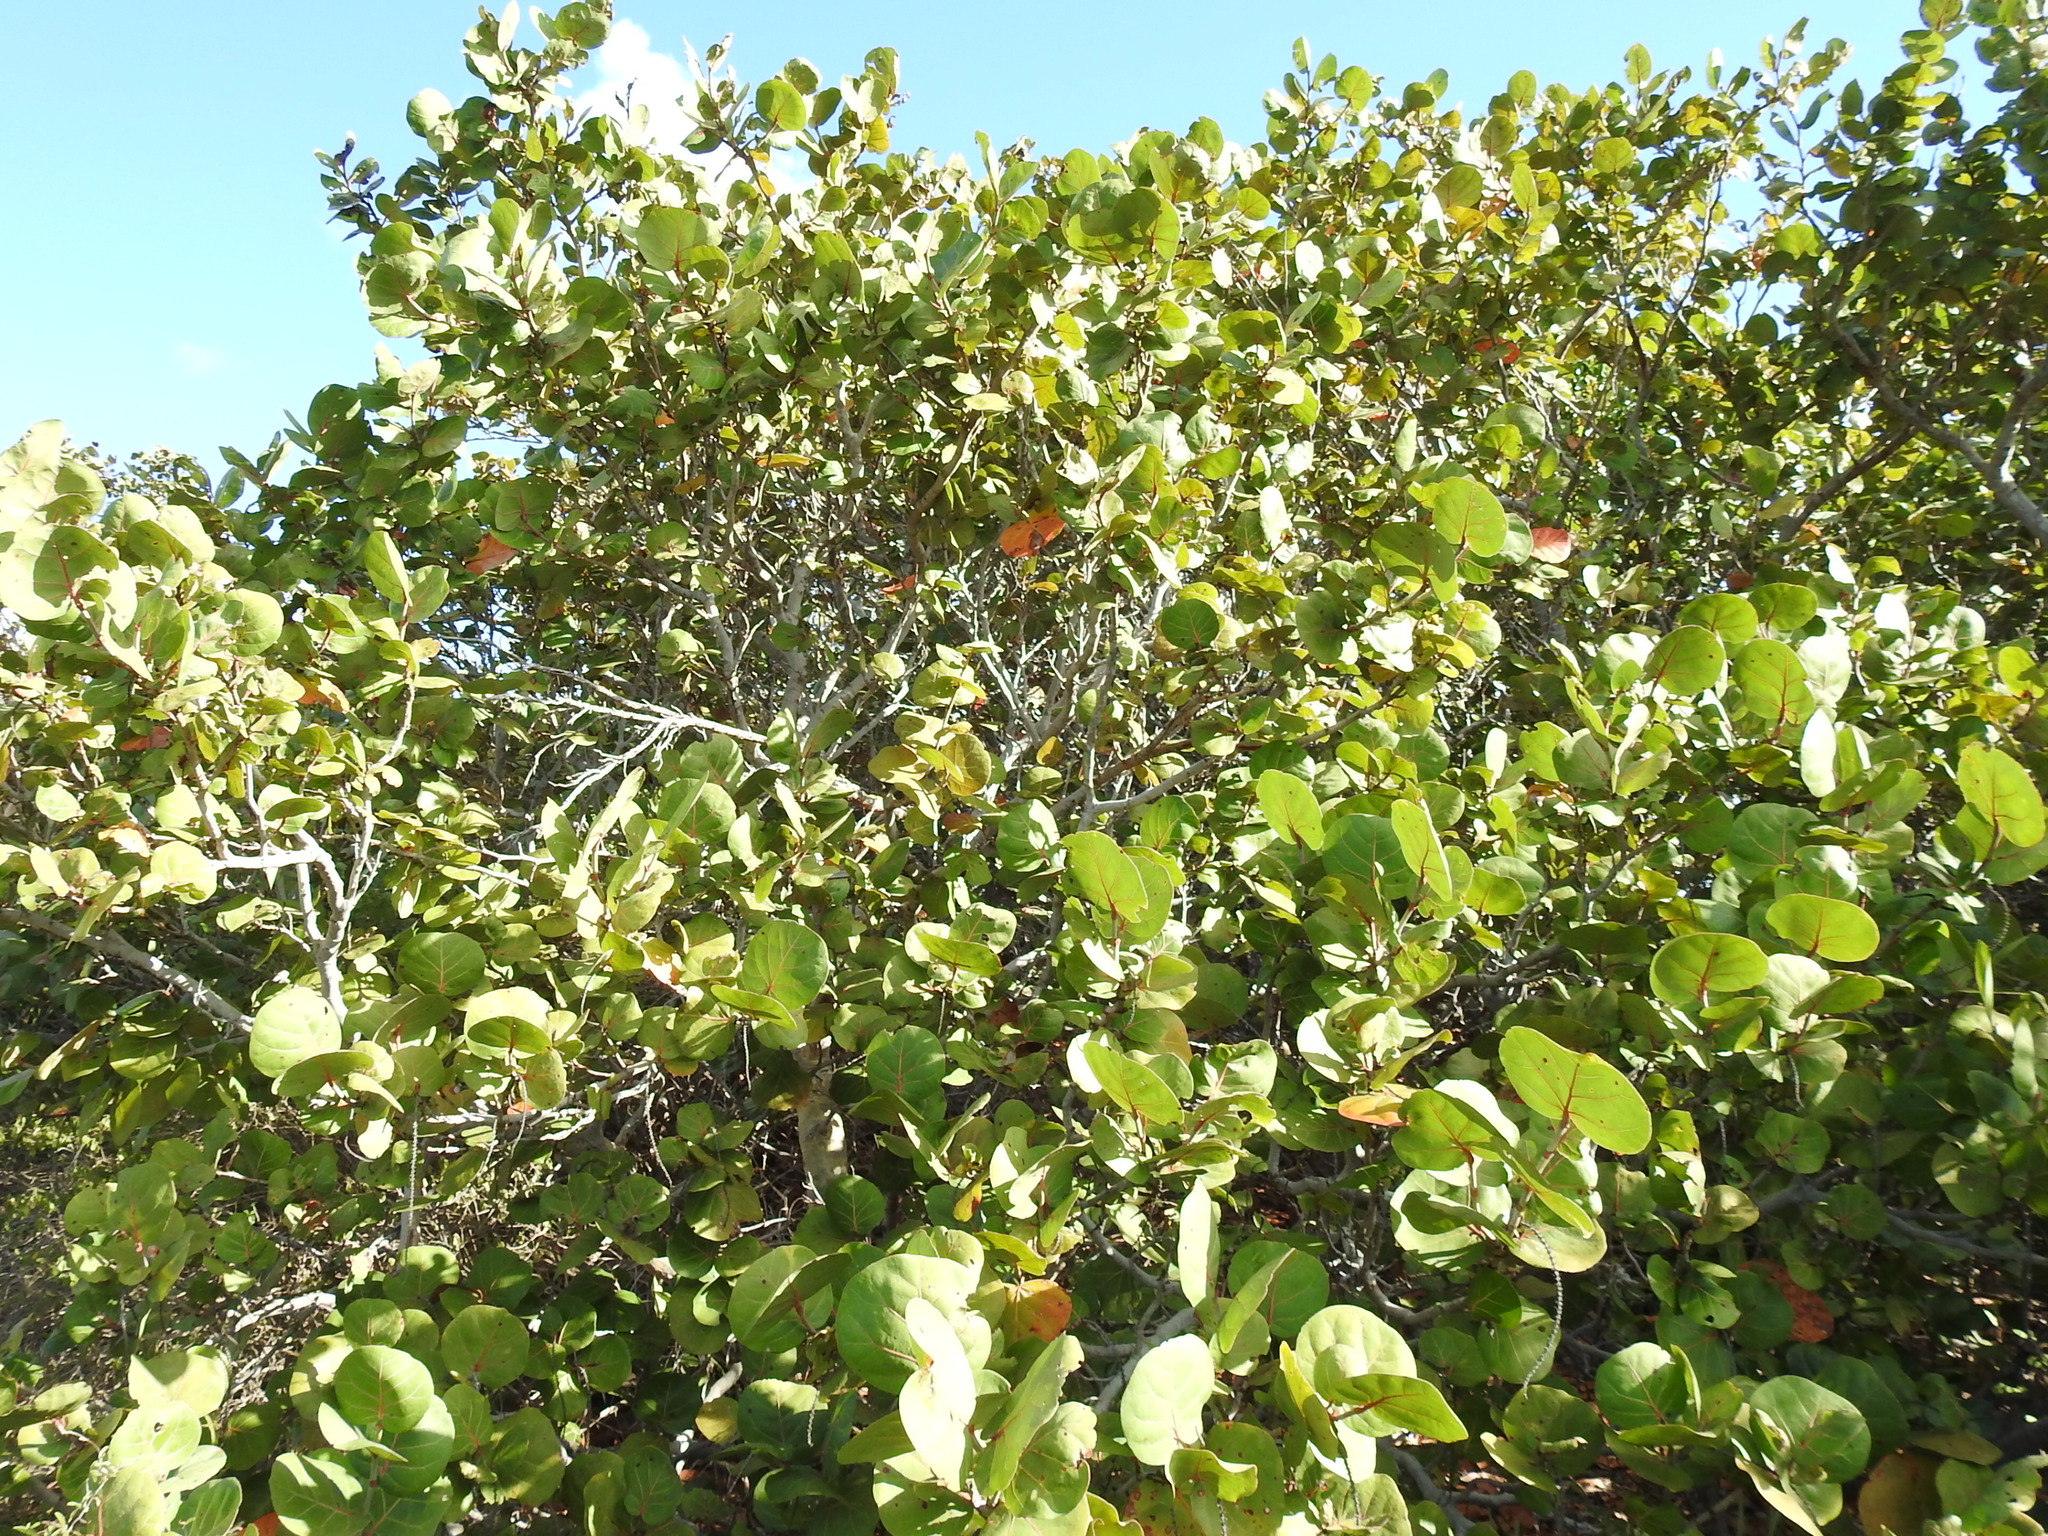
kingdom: Plantae
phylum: Tracheophyta
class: Magnoliopsida
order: Caryophyllales
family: Polygonaceae
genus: Coccoloba
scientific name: Coccoloba uvifera
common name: Seagrape
